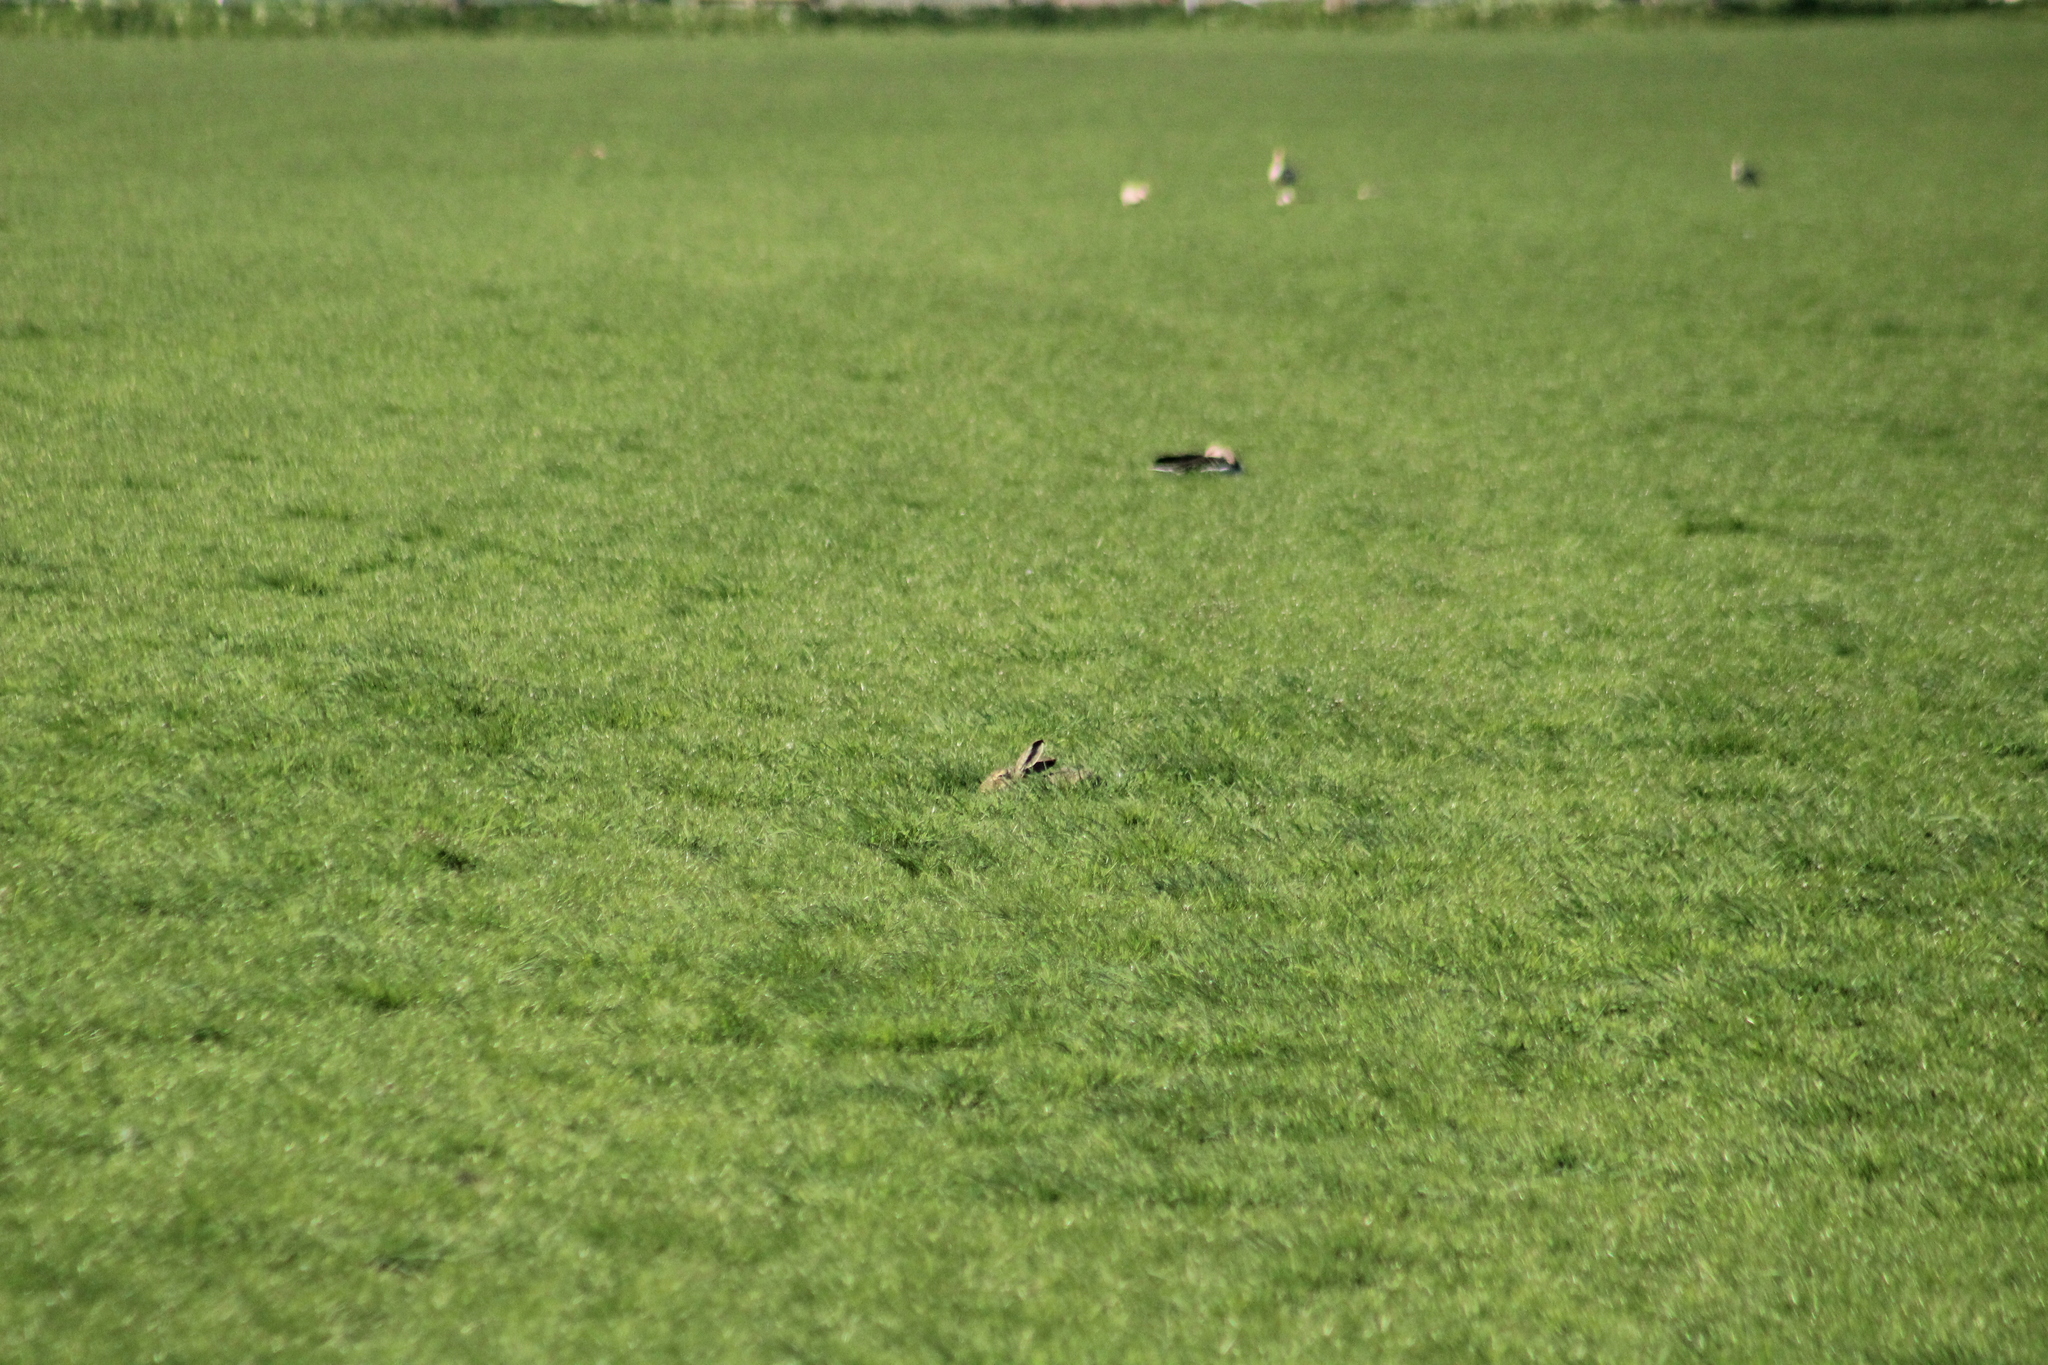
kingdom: Animalia
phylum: Chordata
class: Mammalia
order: Lagomorpha
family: Leporidae
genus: Lepus
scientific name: Lepus europaeus
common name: European hare
